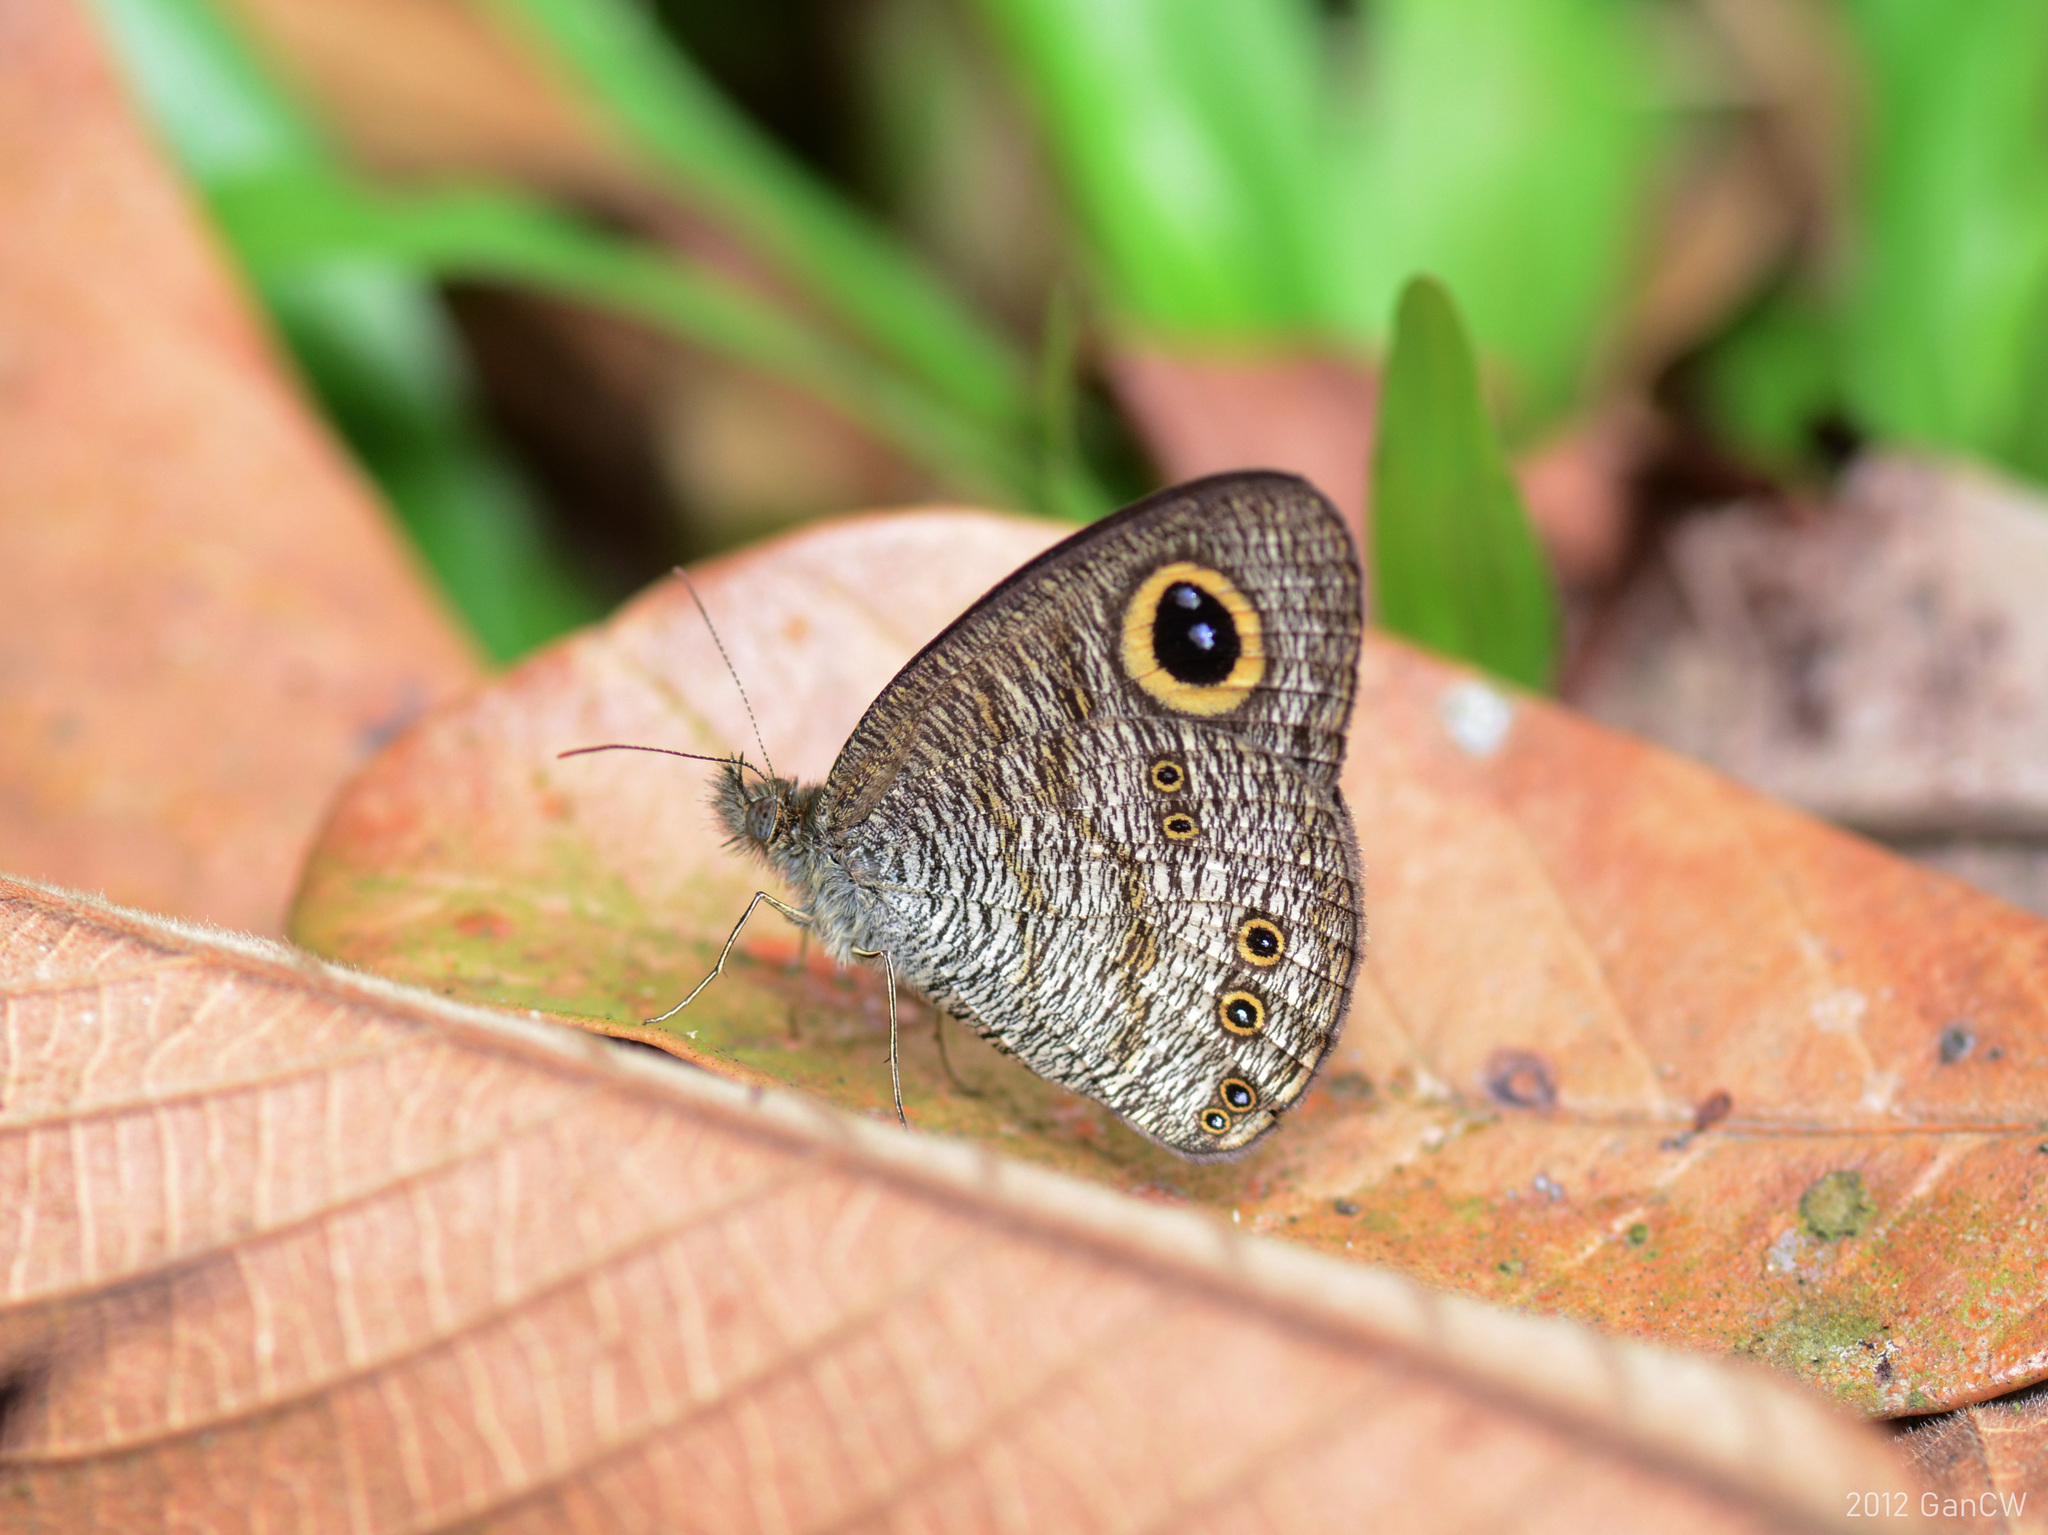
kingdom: Animalia
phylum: Arthropoda
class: Insecta
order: Lepidoptera
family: Nymphalidae
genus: Ypthima
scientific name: Ypthima baldus
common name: Common five-ring
